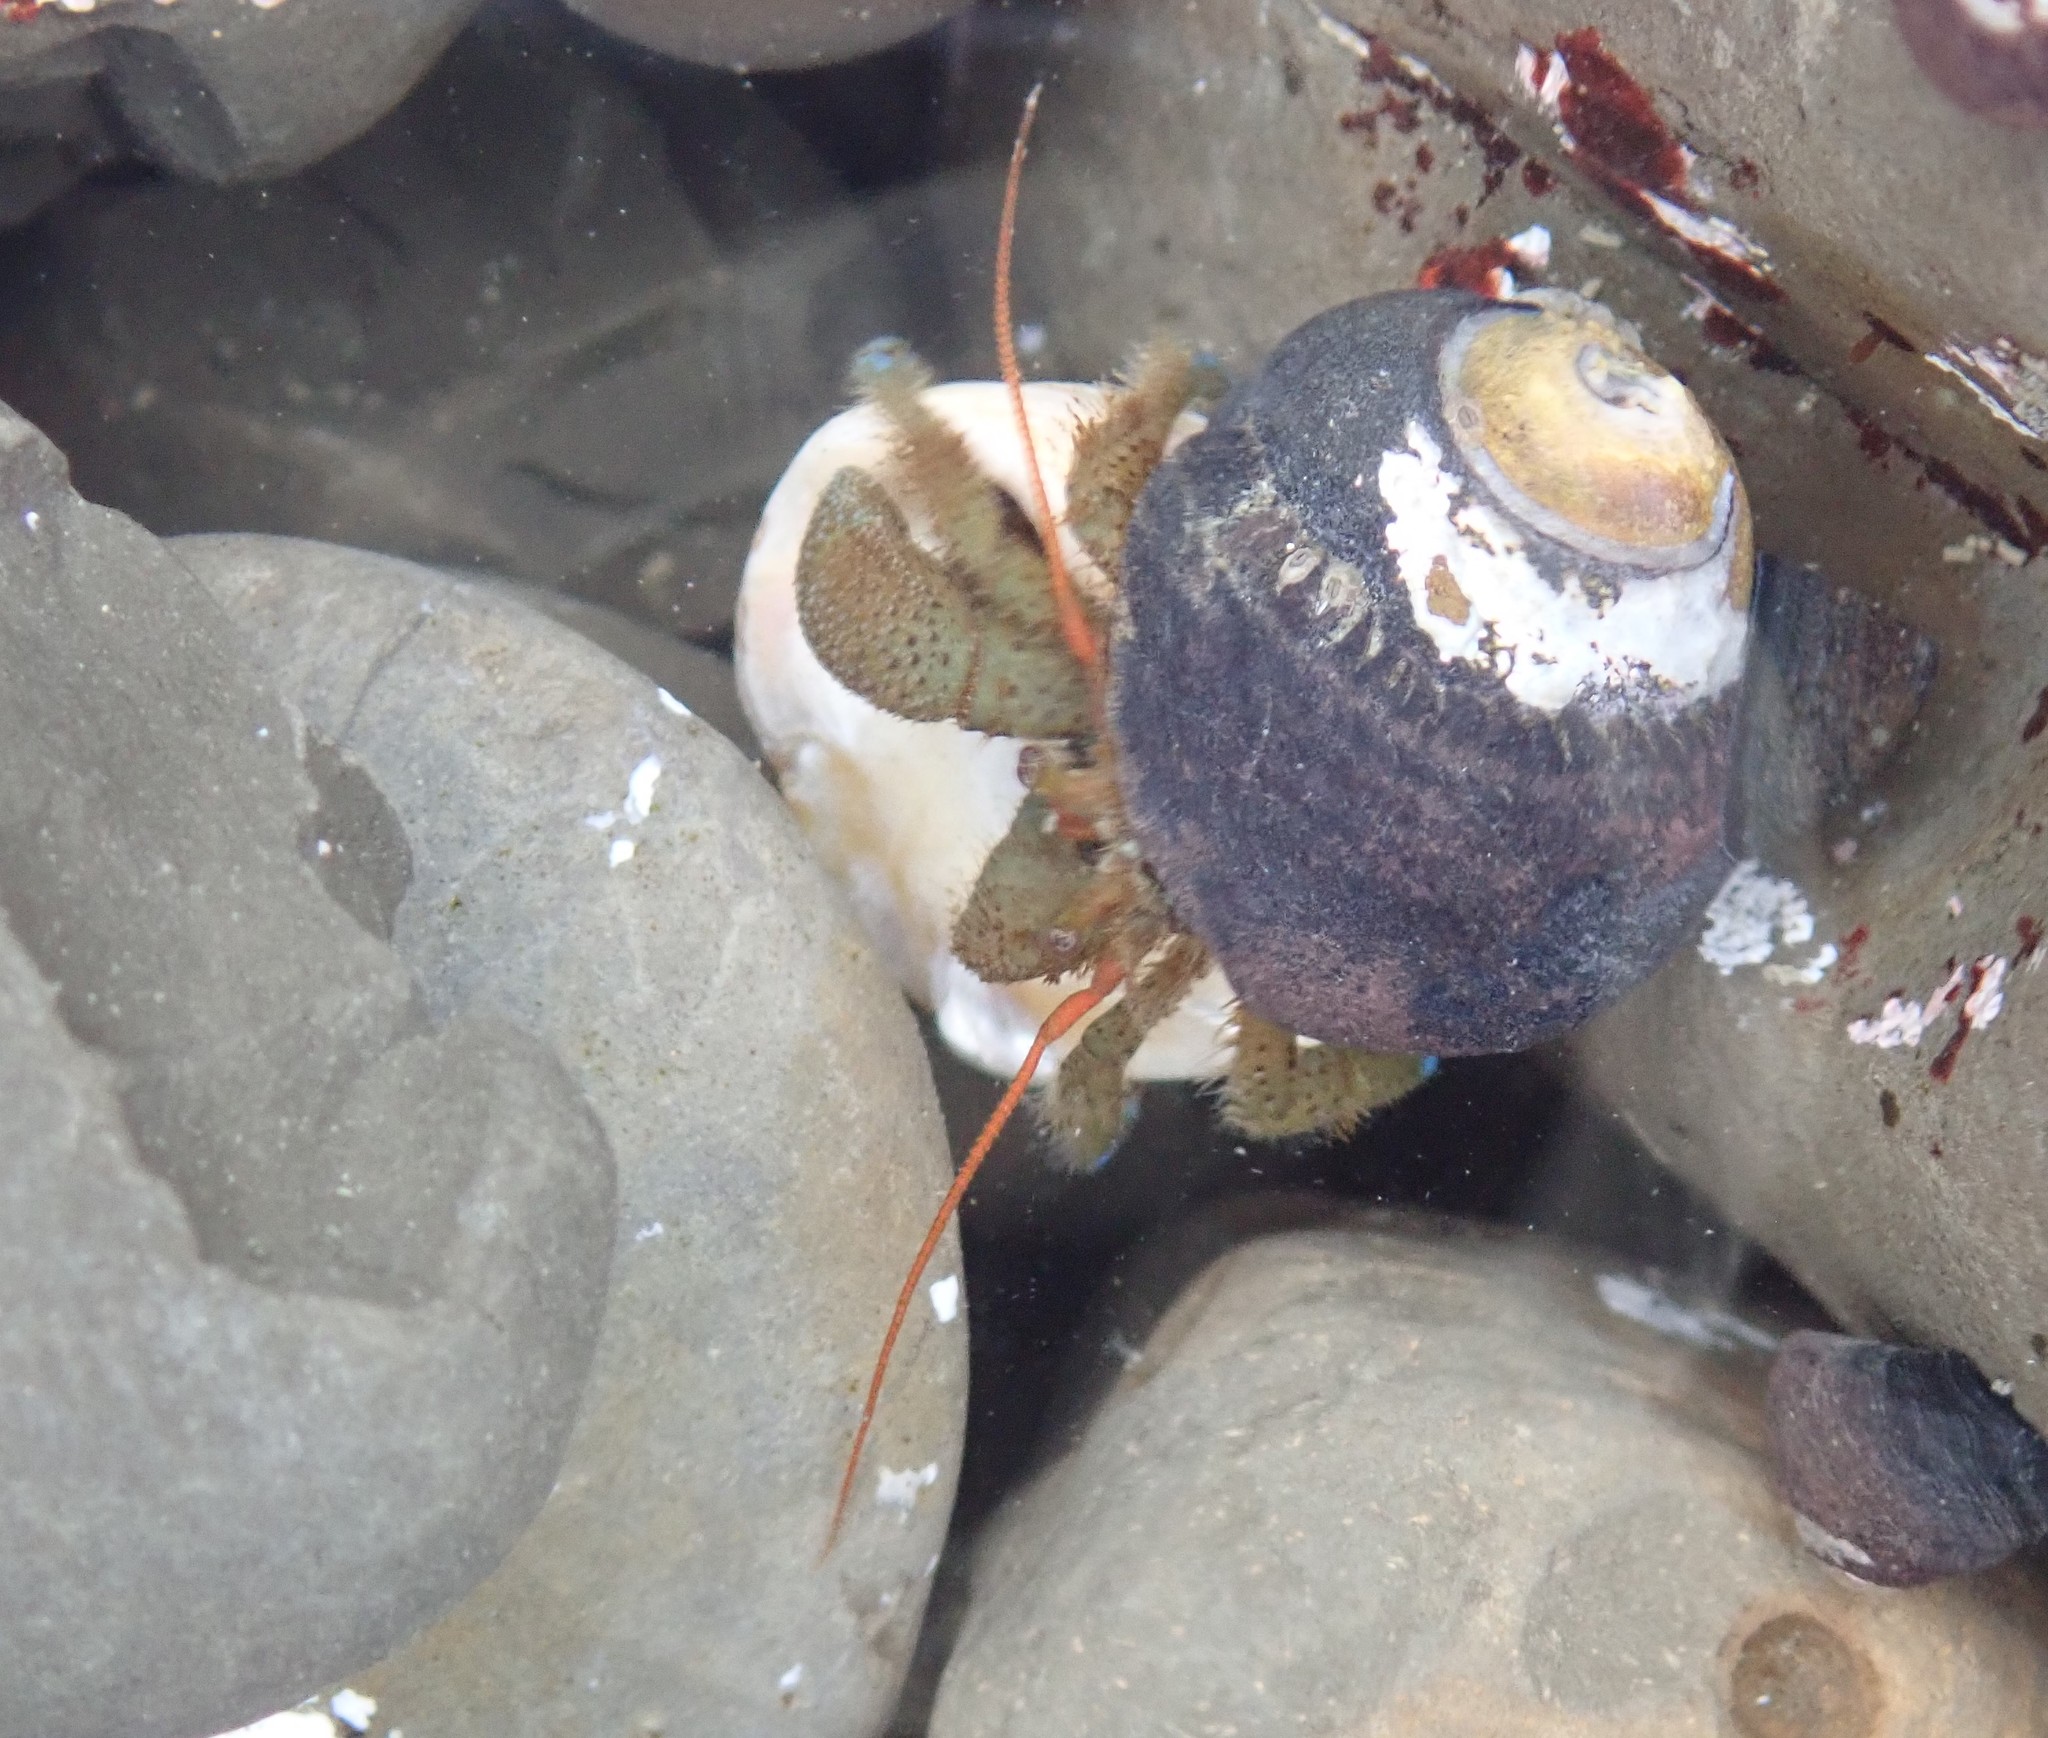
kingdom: Animalia
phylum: Arthropoda
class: Malacostraca
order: Decapoda
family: Paguridae
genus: Pagurus
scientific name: Pagurus samuelis
